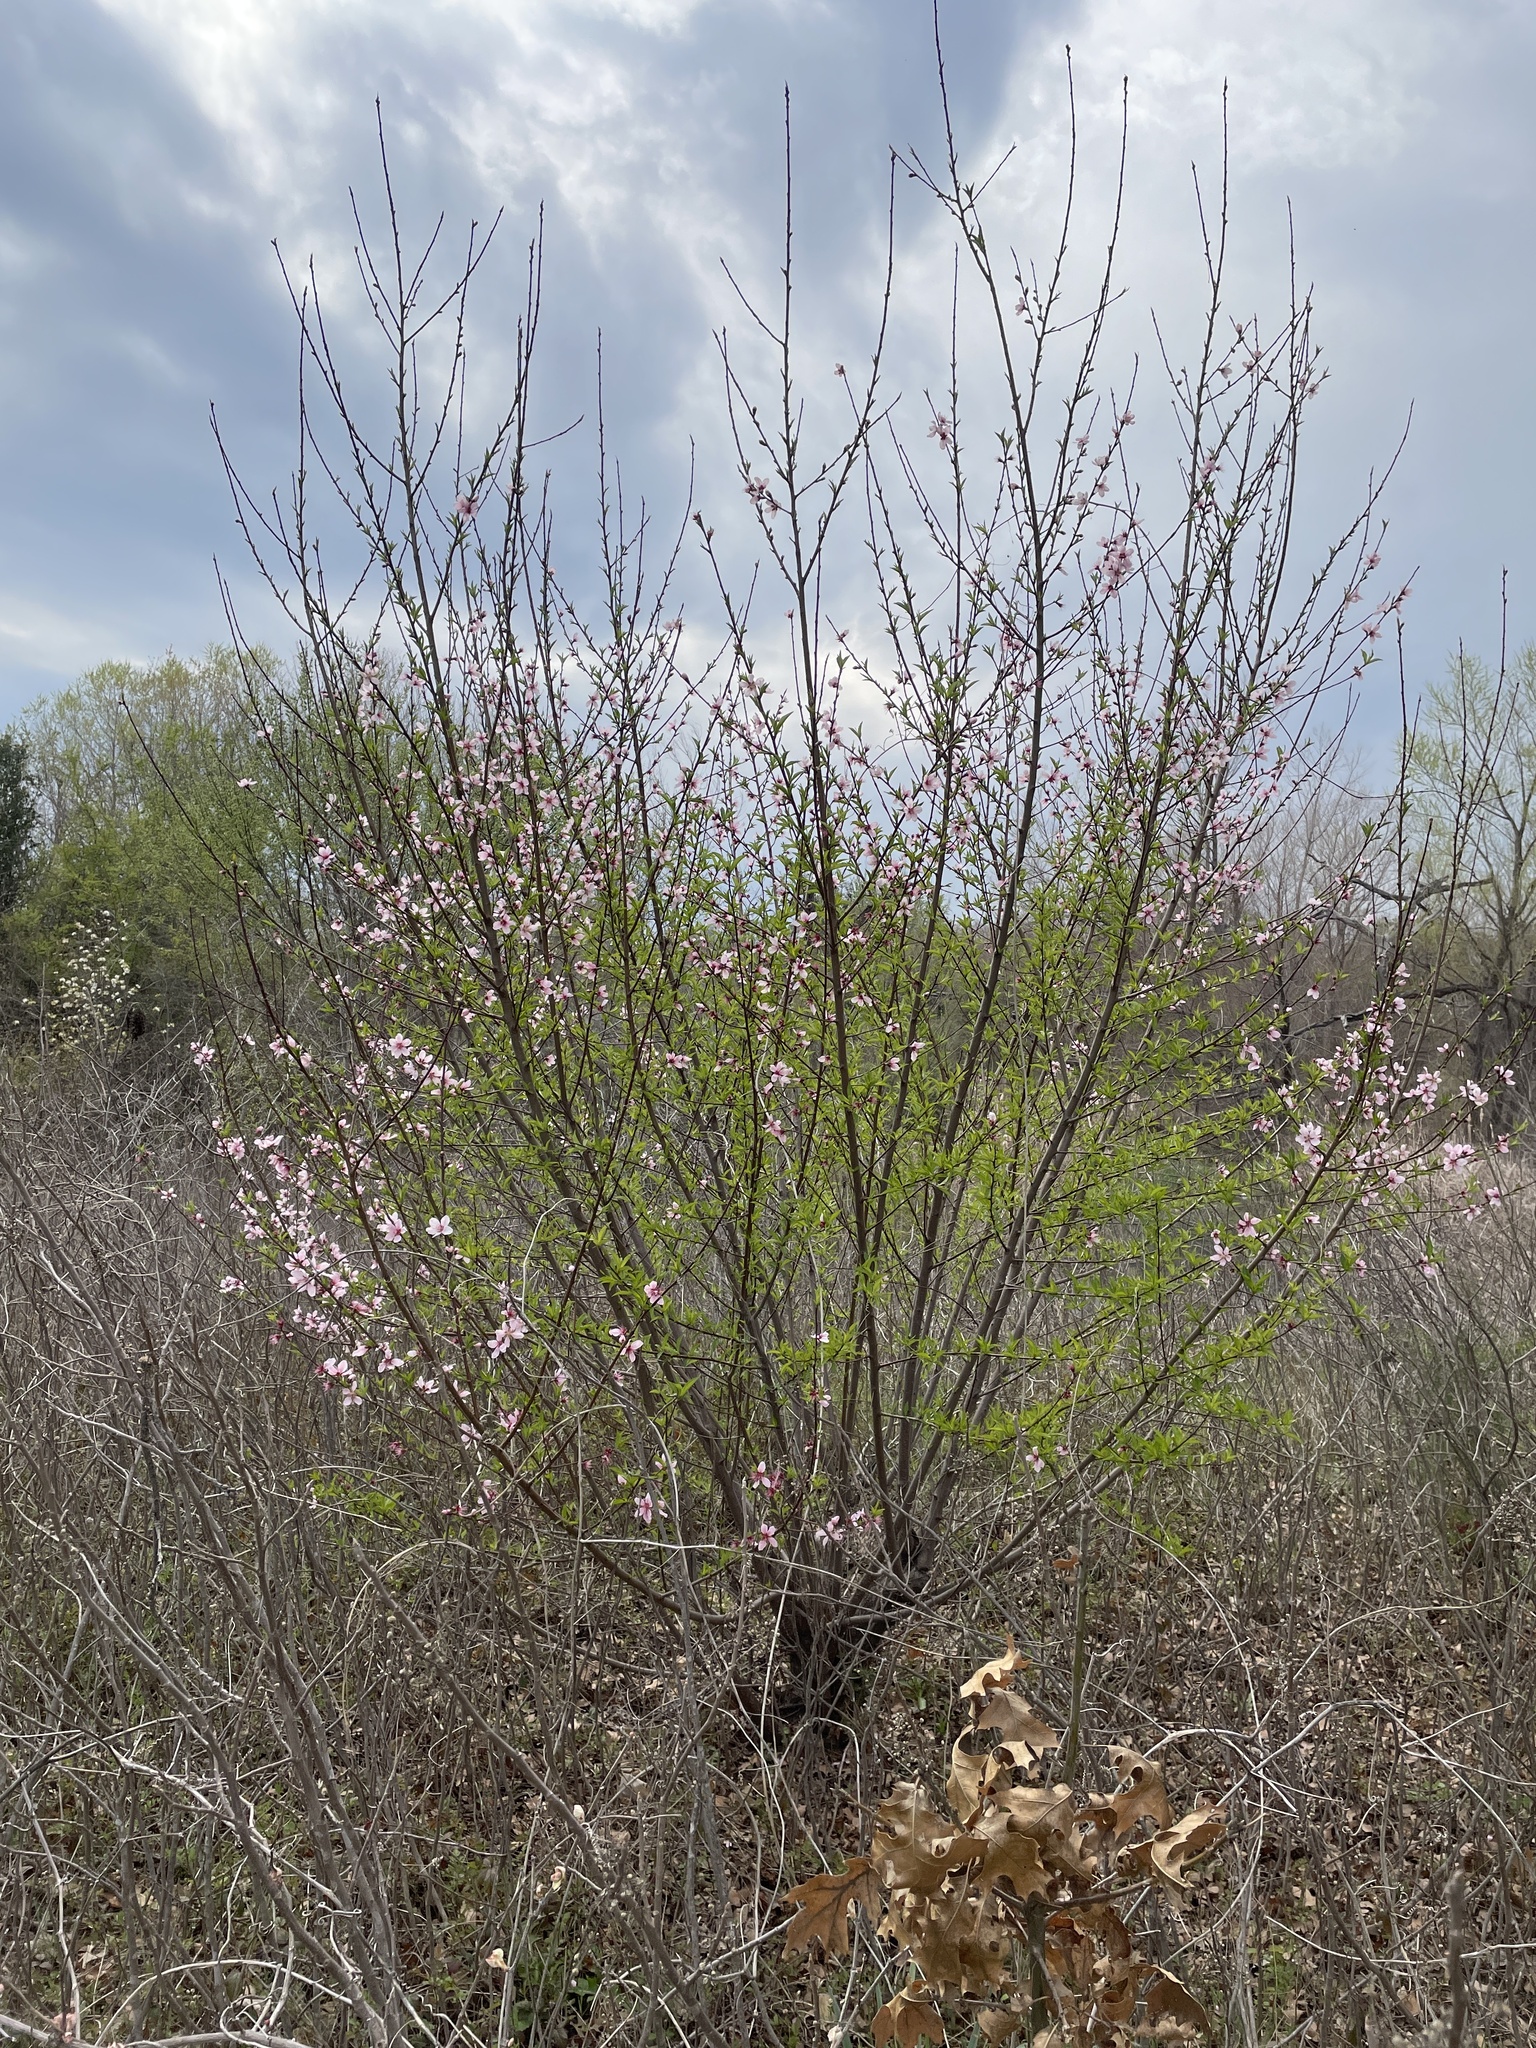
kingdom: Plantae
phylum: Tracheophyta
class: Magnoliopsida
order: Rosales
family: Rosaceae
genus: Prunus
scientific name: Prunus persica
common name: Peach
